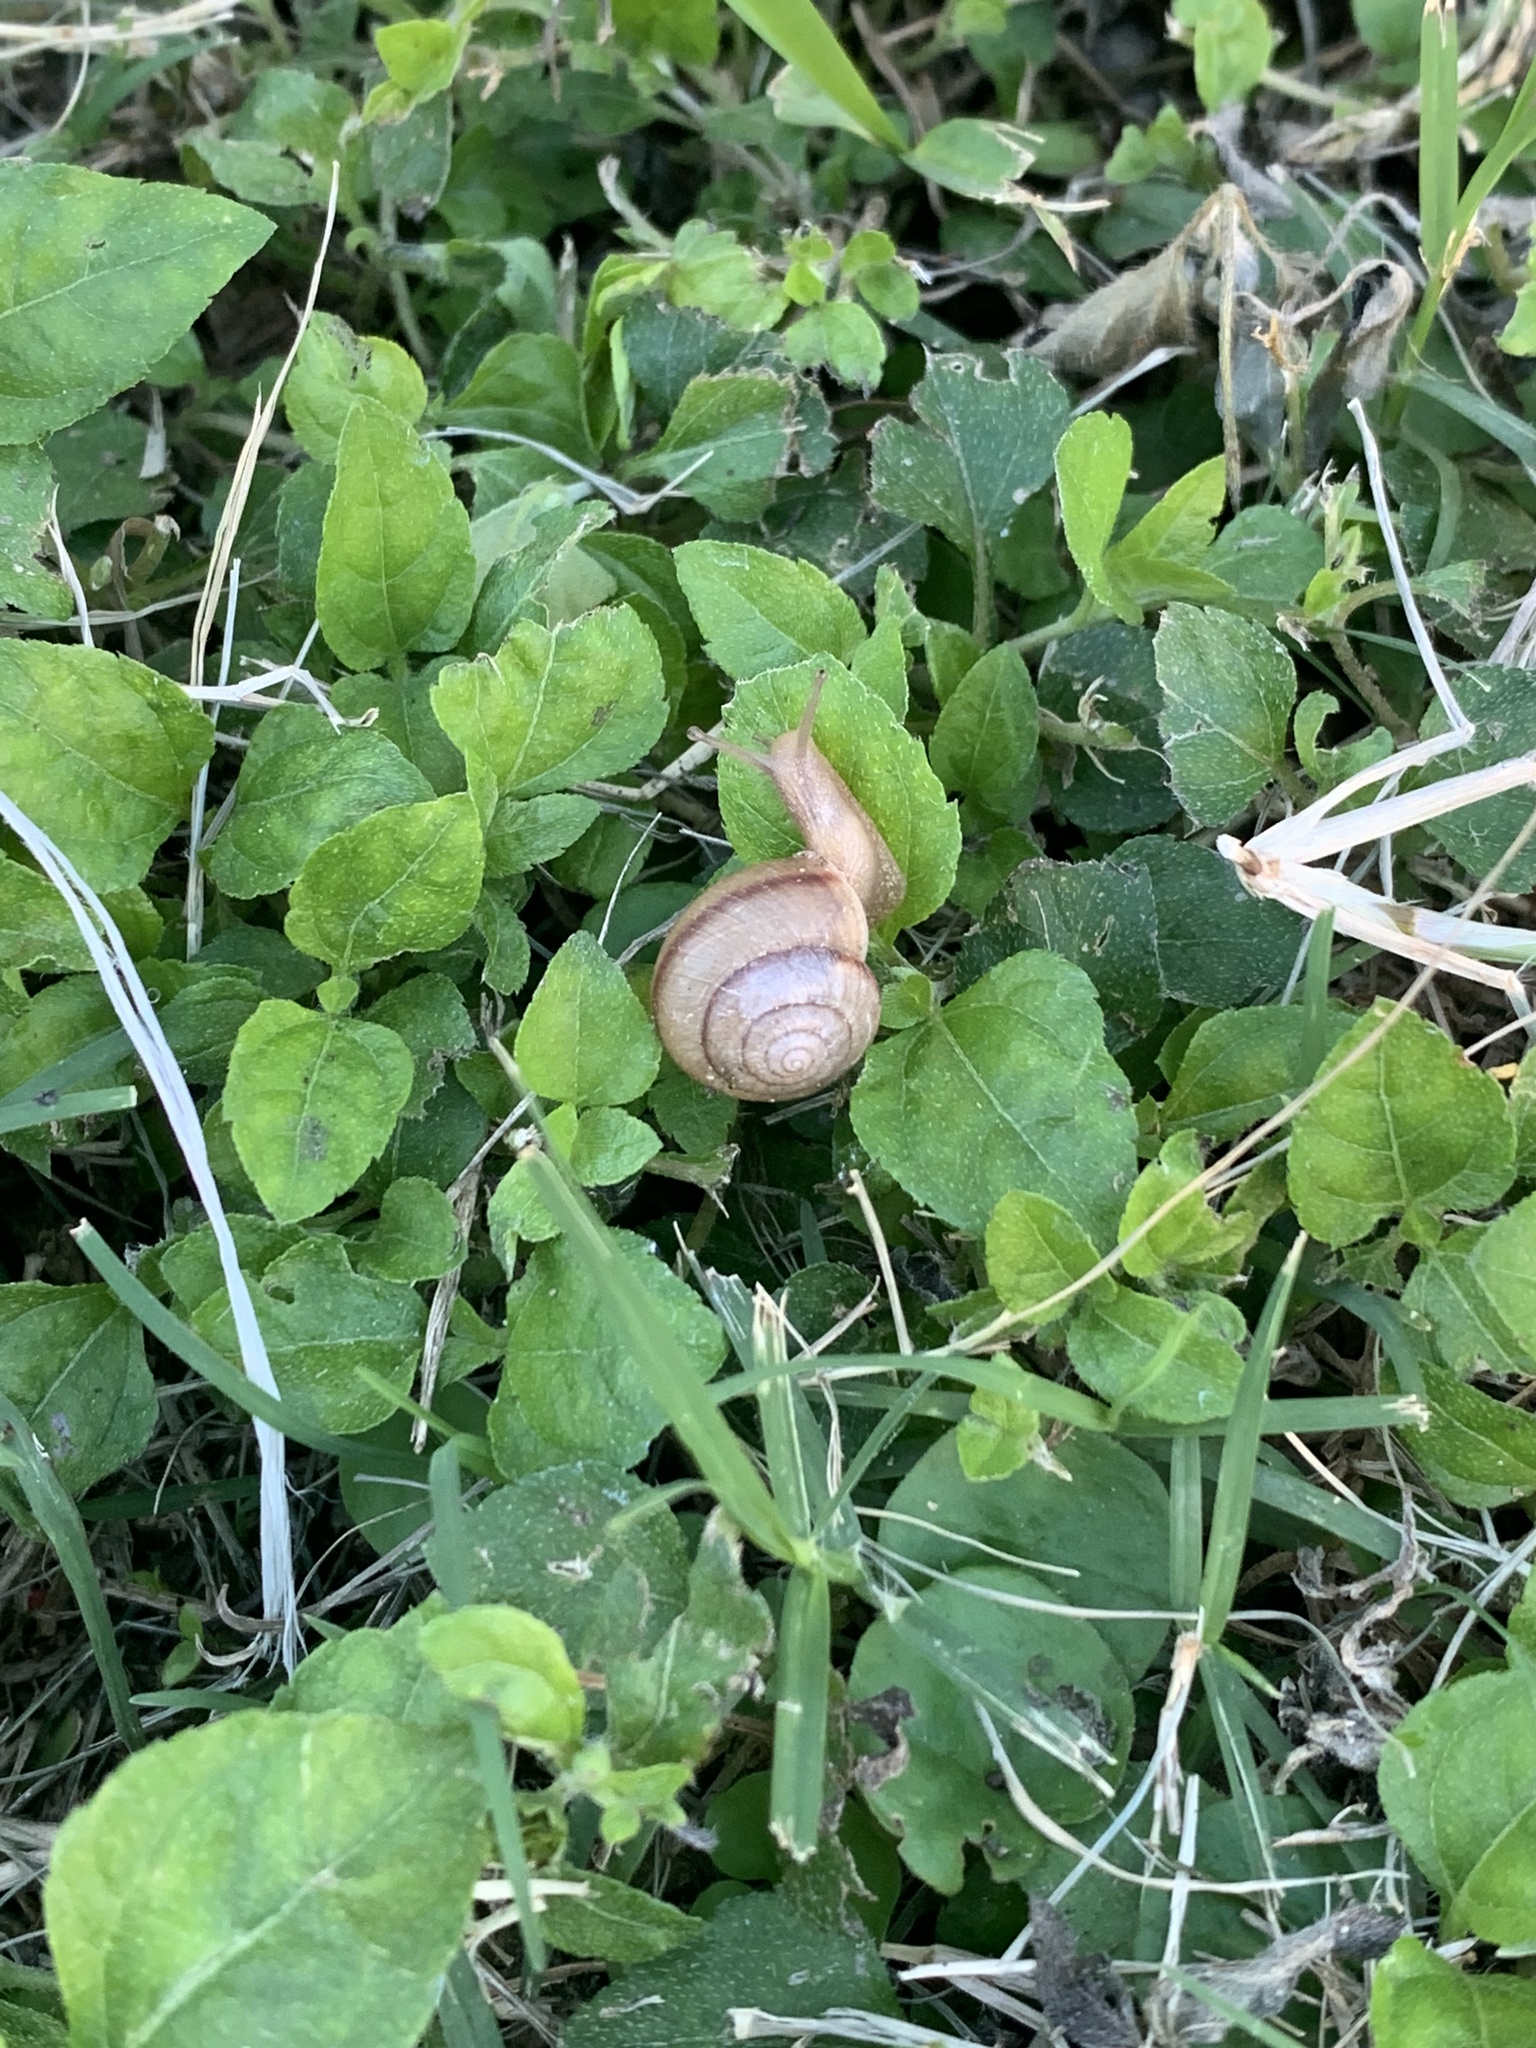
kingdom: Animalia
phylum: Mollusca
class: Gastropoda
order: Stylommatophora
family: Camaenidae
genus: Bradybaena
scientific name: Bradybaena similaris
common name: Asian trampsnail
